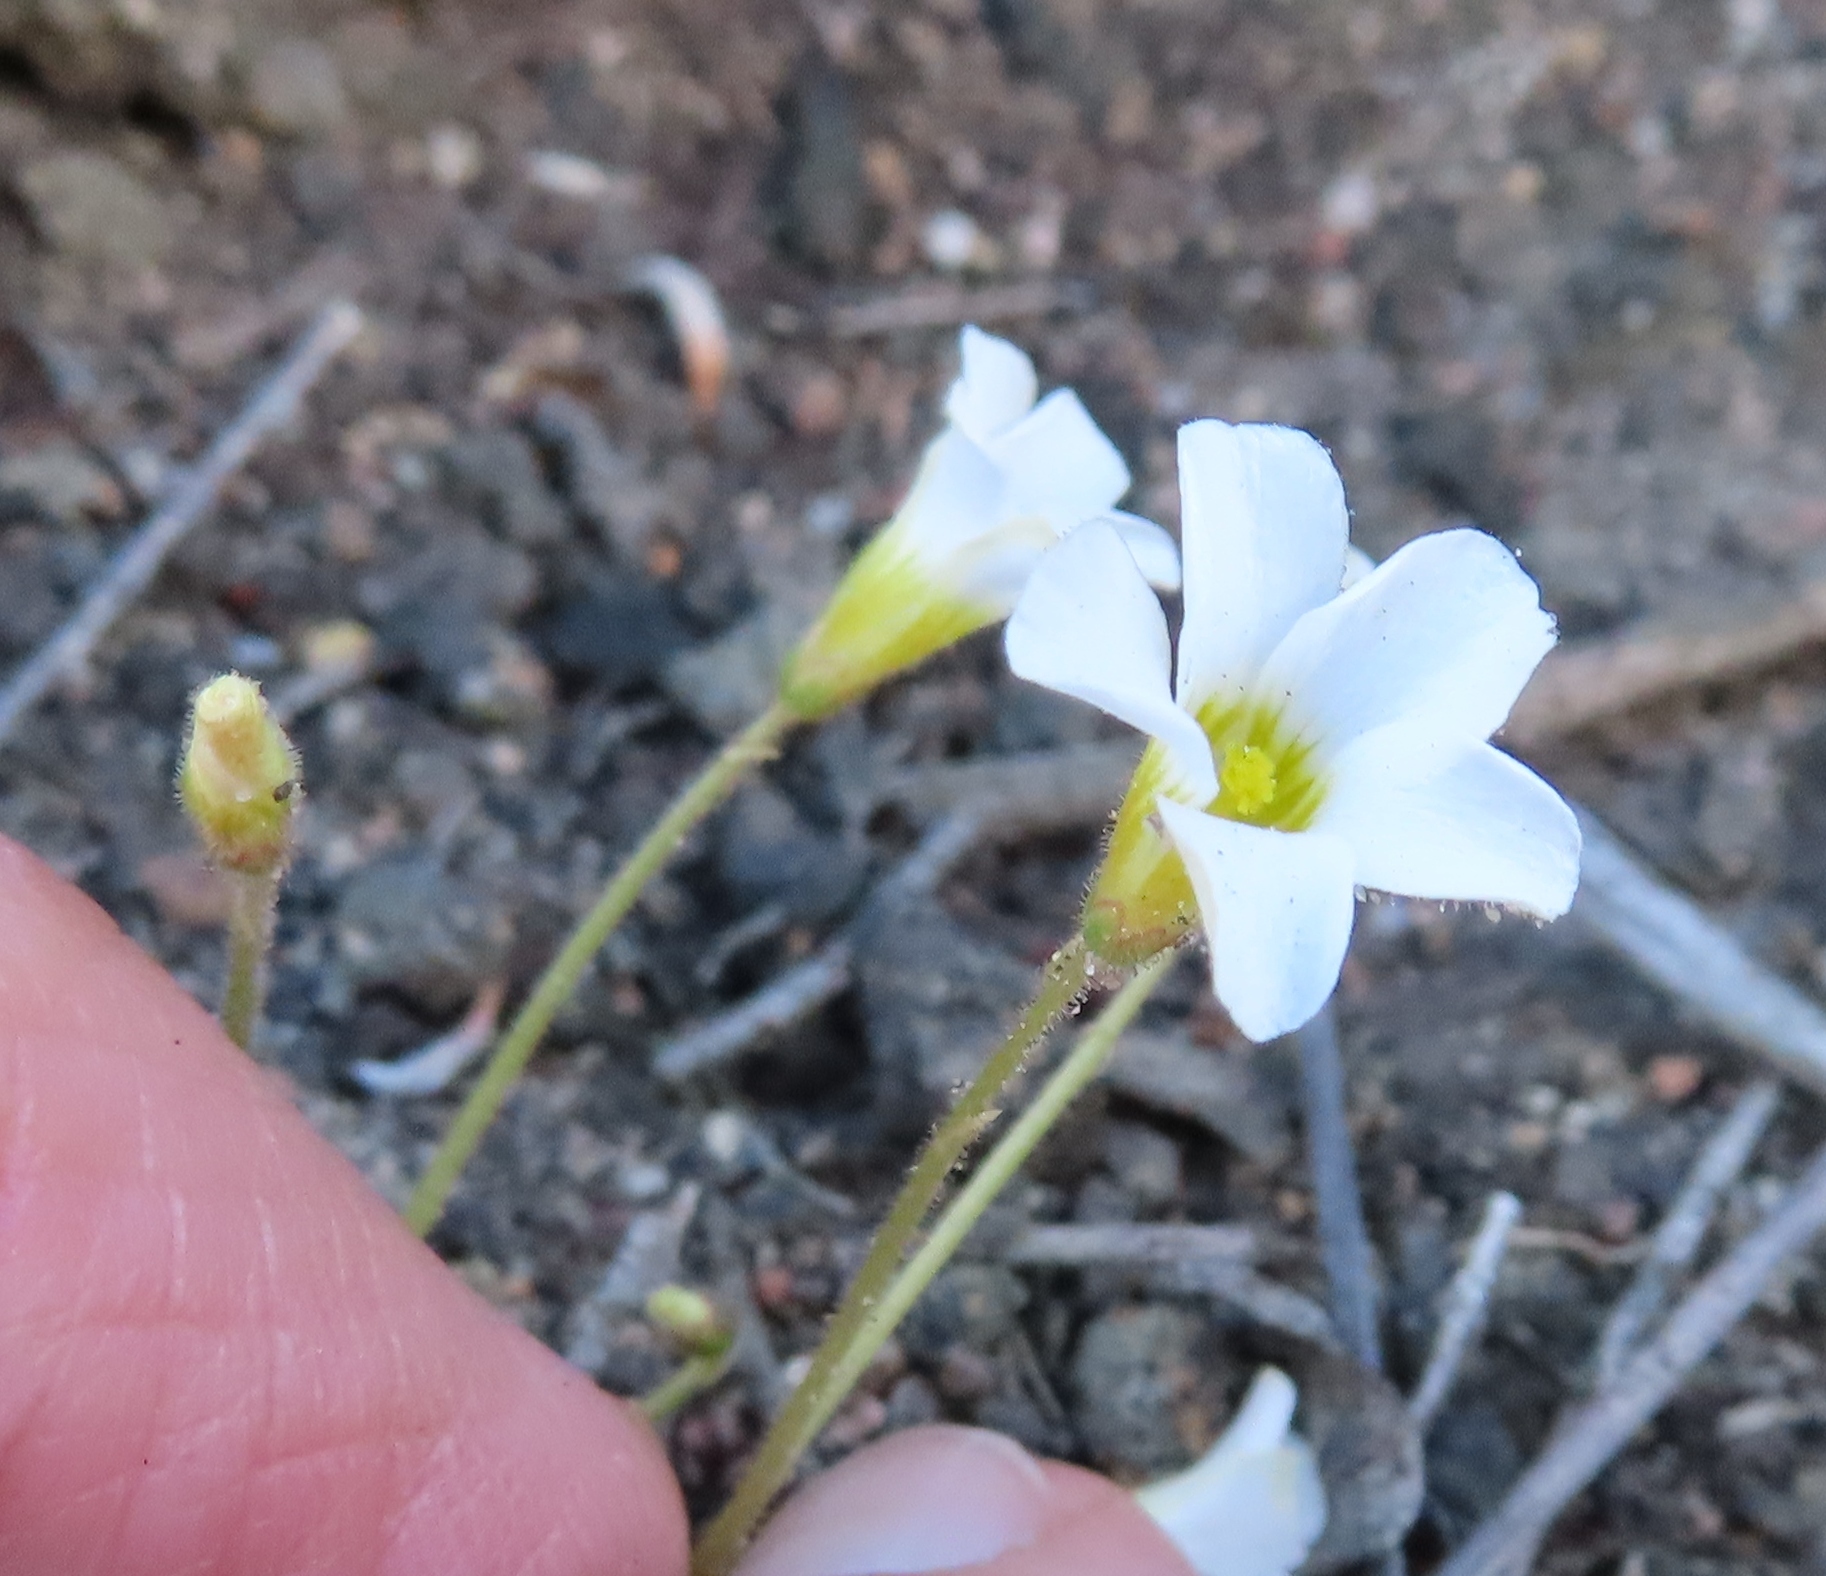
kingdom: Plantae
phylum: Tracheophyta
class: Magnoliopsida
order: Oxalidales
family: Oxalidaceae
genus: Oxalis
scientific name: Oxalis punctata
